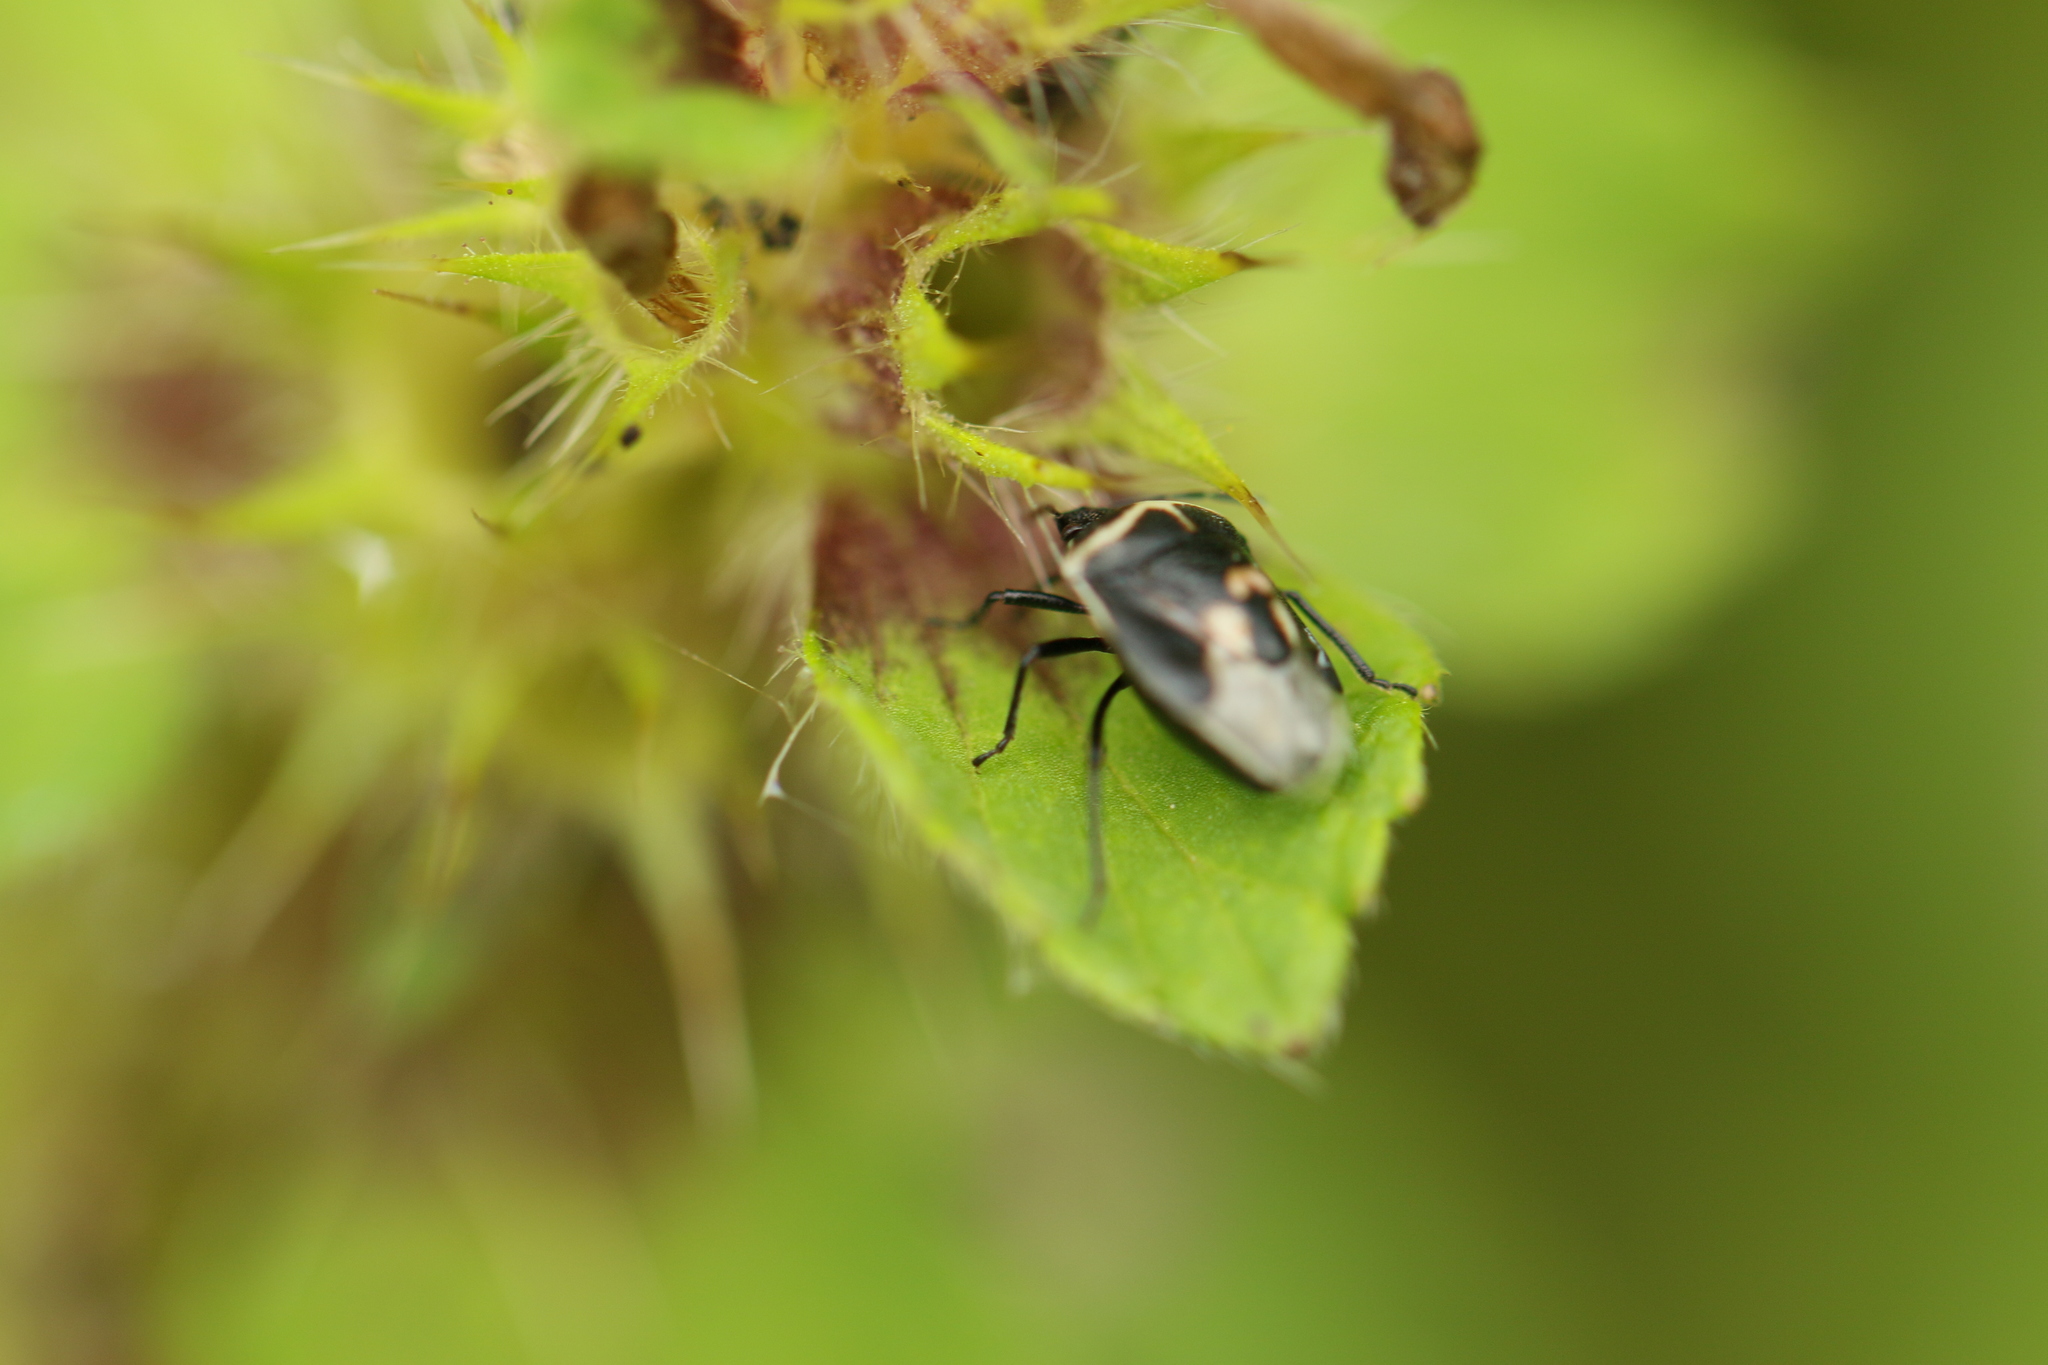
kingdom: Animalia
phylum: Arthropoda
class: Insecta
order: Hemiptera
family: Pentatomidae
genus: Cosmopepla
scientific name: Cosmopepla lintneriana
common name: Twice-stabbed stink bug
